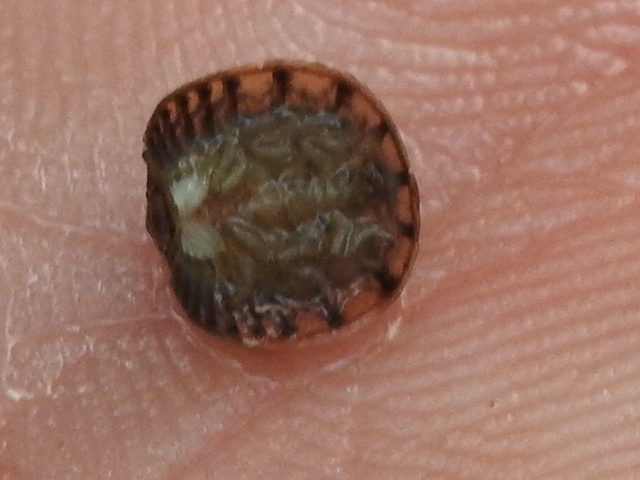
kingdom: Animalia
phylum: Arthropoda
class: Insecta
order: Coleoptera
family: Psephenidae
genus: Psephenus
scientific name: Psephenus texanus
